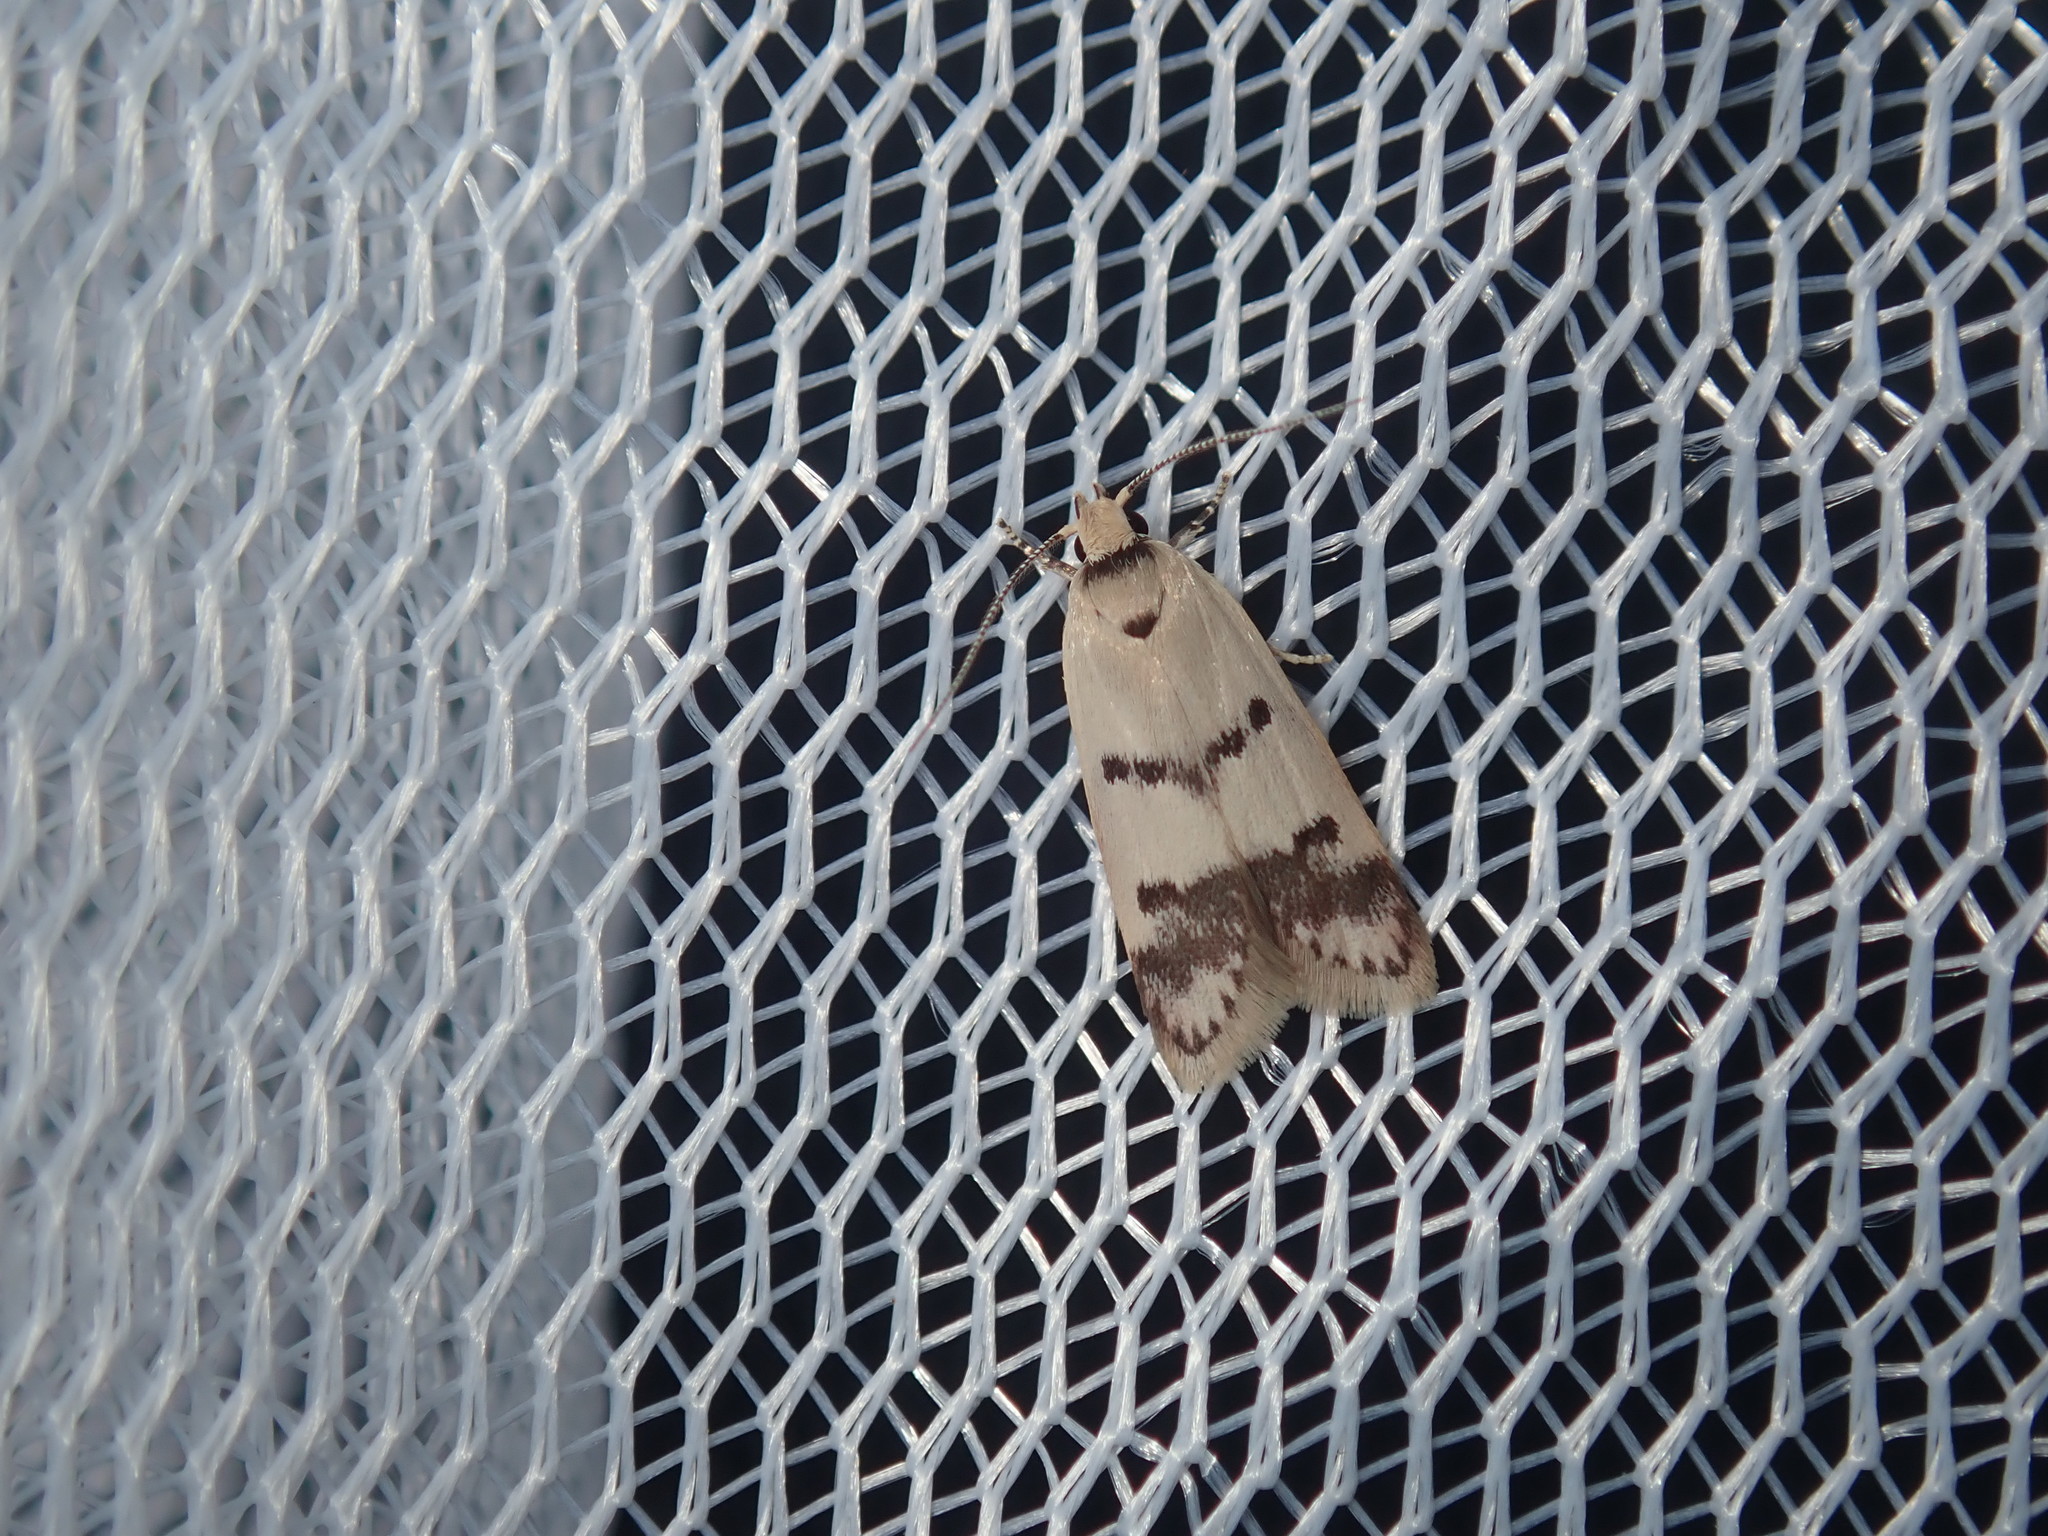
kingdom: Animalia
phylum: Arthropoda
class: Insecta
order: Lepidoptera
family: Oecophoridae
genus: Compsotropha
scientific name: Compsotropha strophiella
